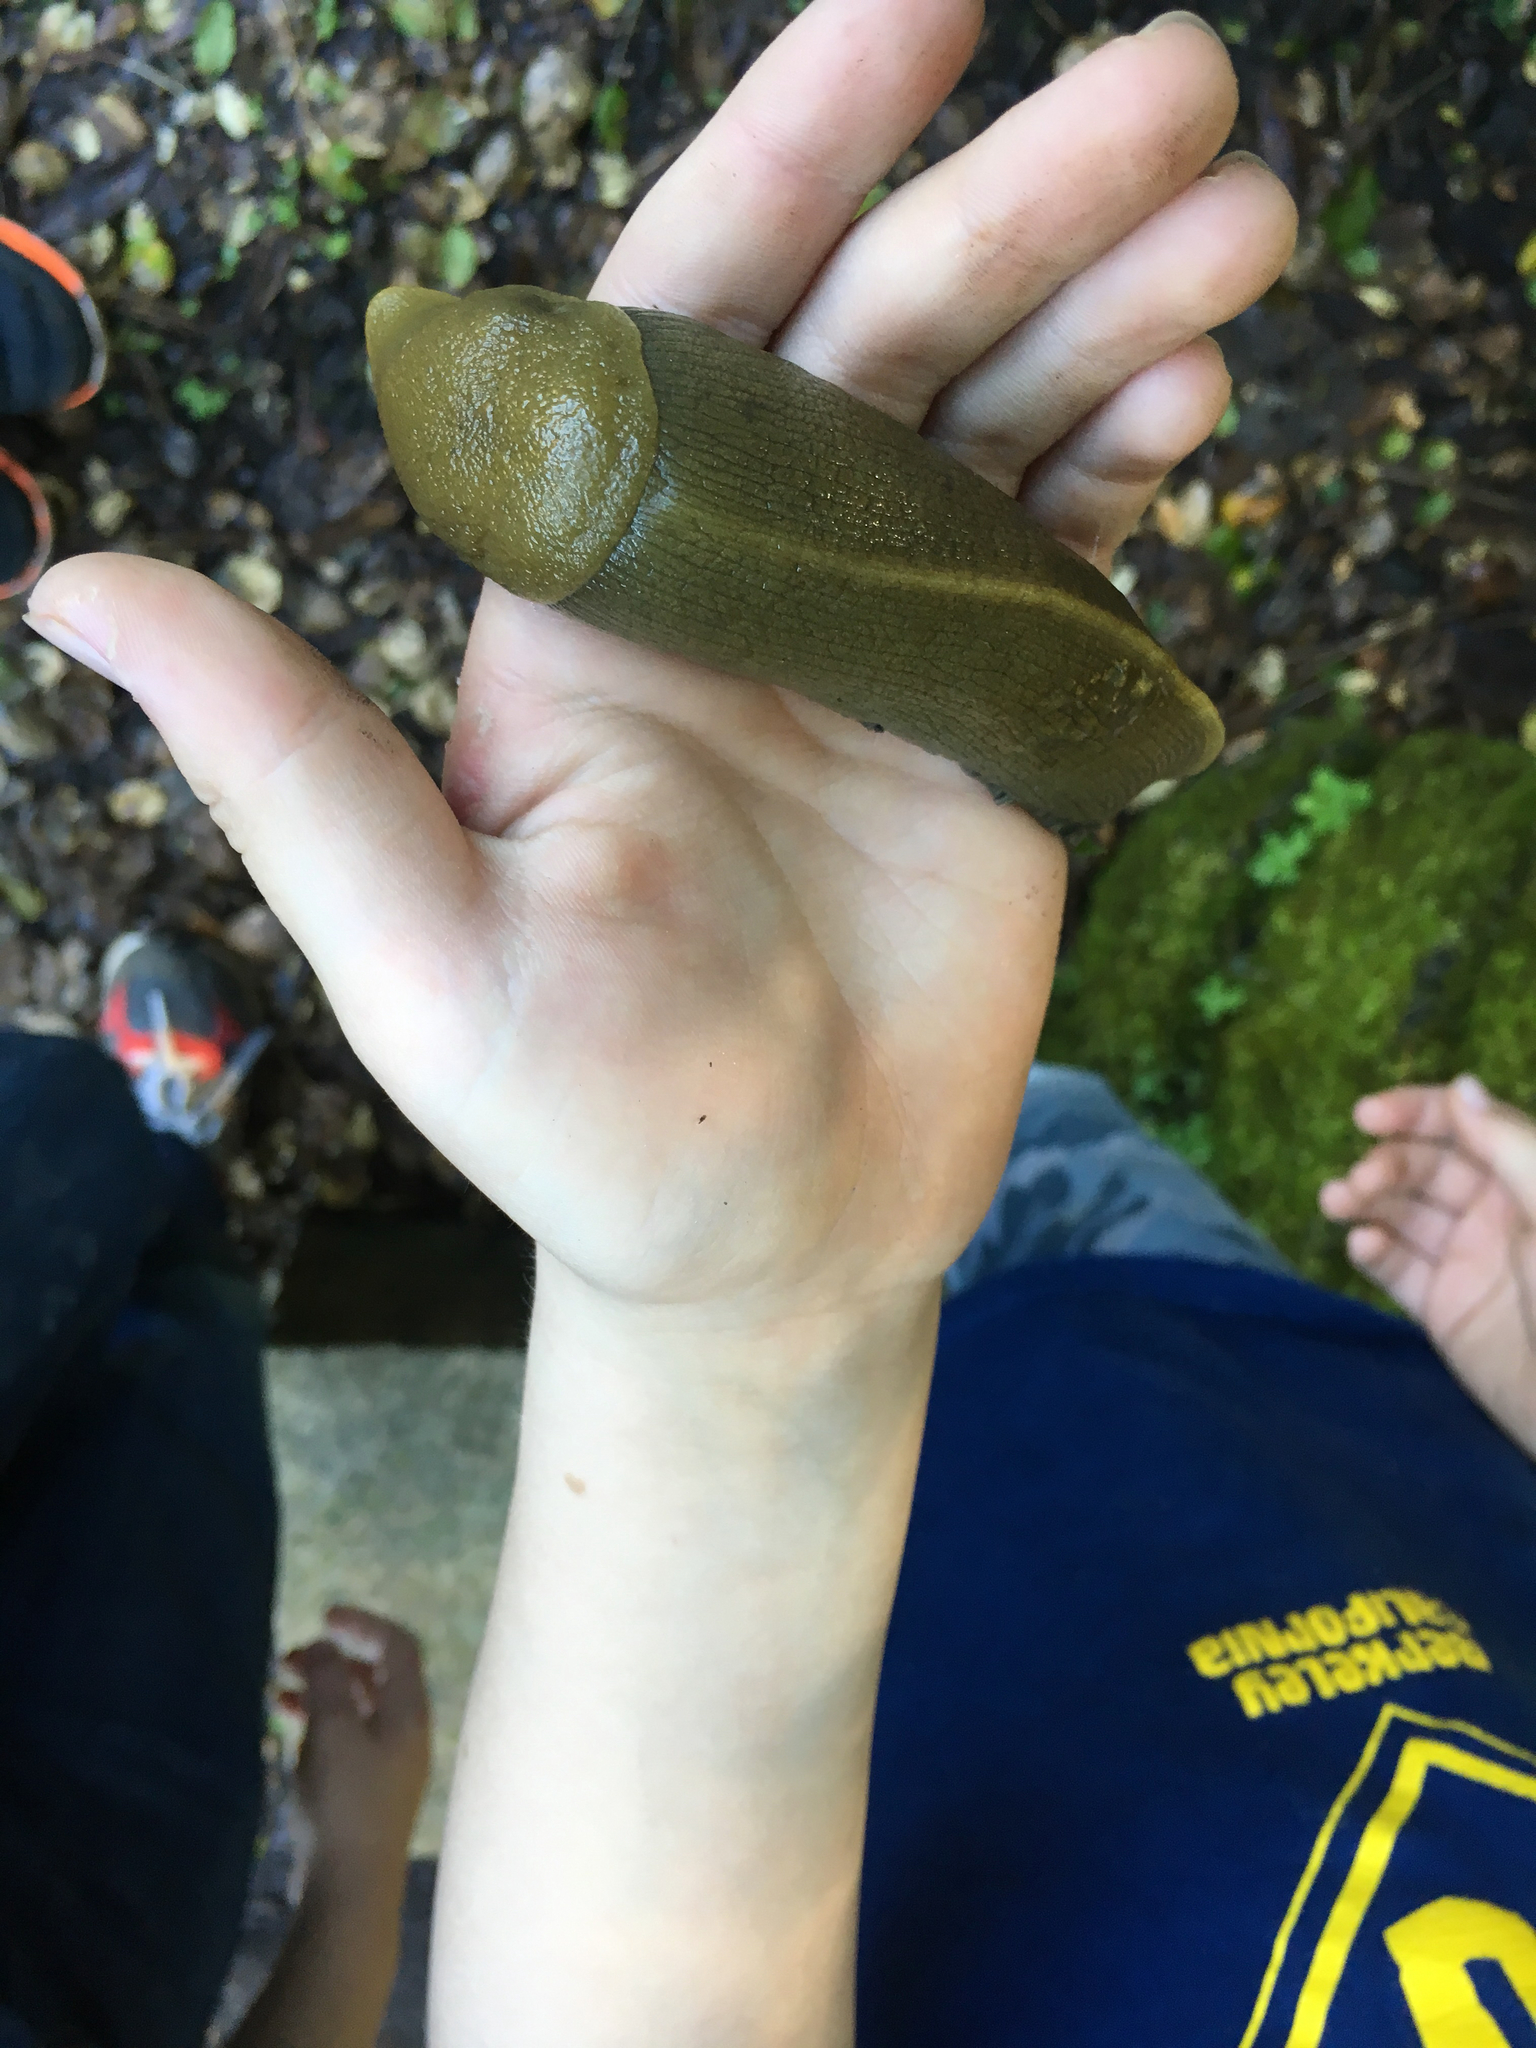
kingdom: Animalia
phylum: Mollusca
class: Gastropoda
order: Stylommatophora
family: Ariolimacidae
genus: Ariolimax
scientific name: Ariolimax buttoni
